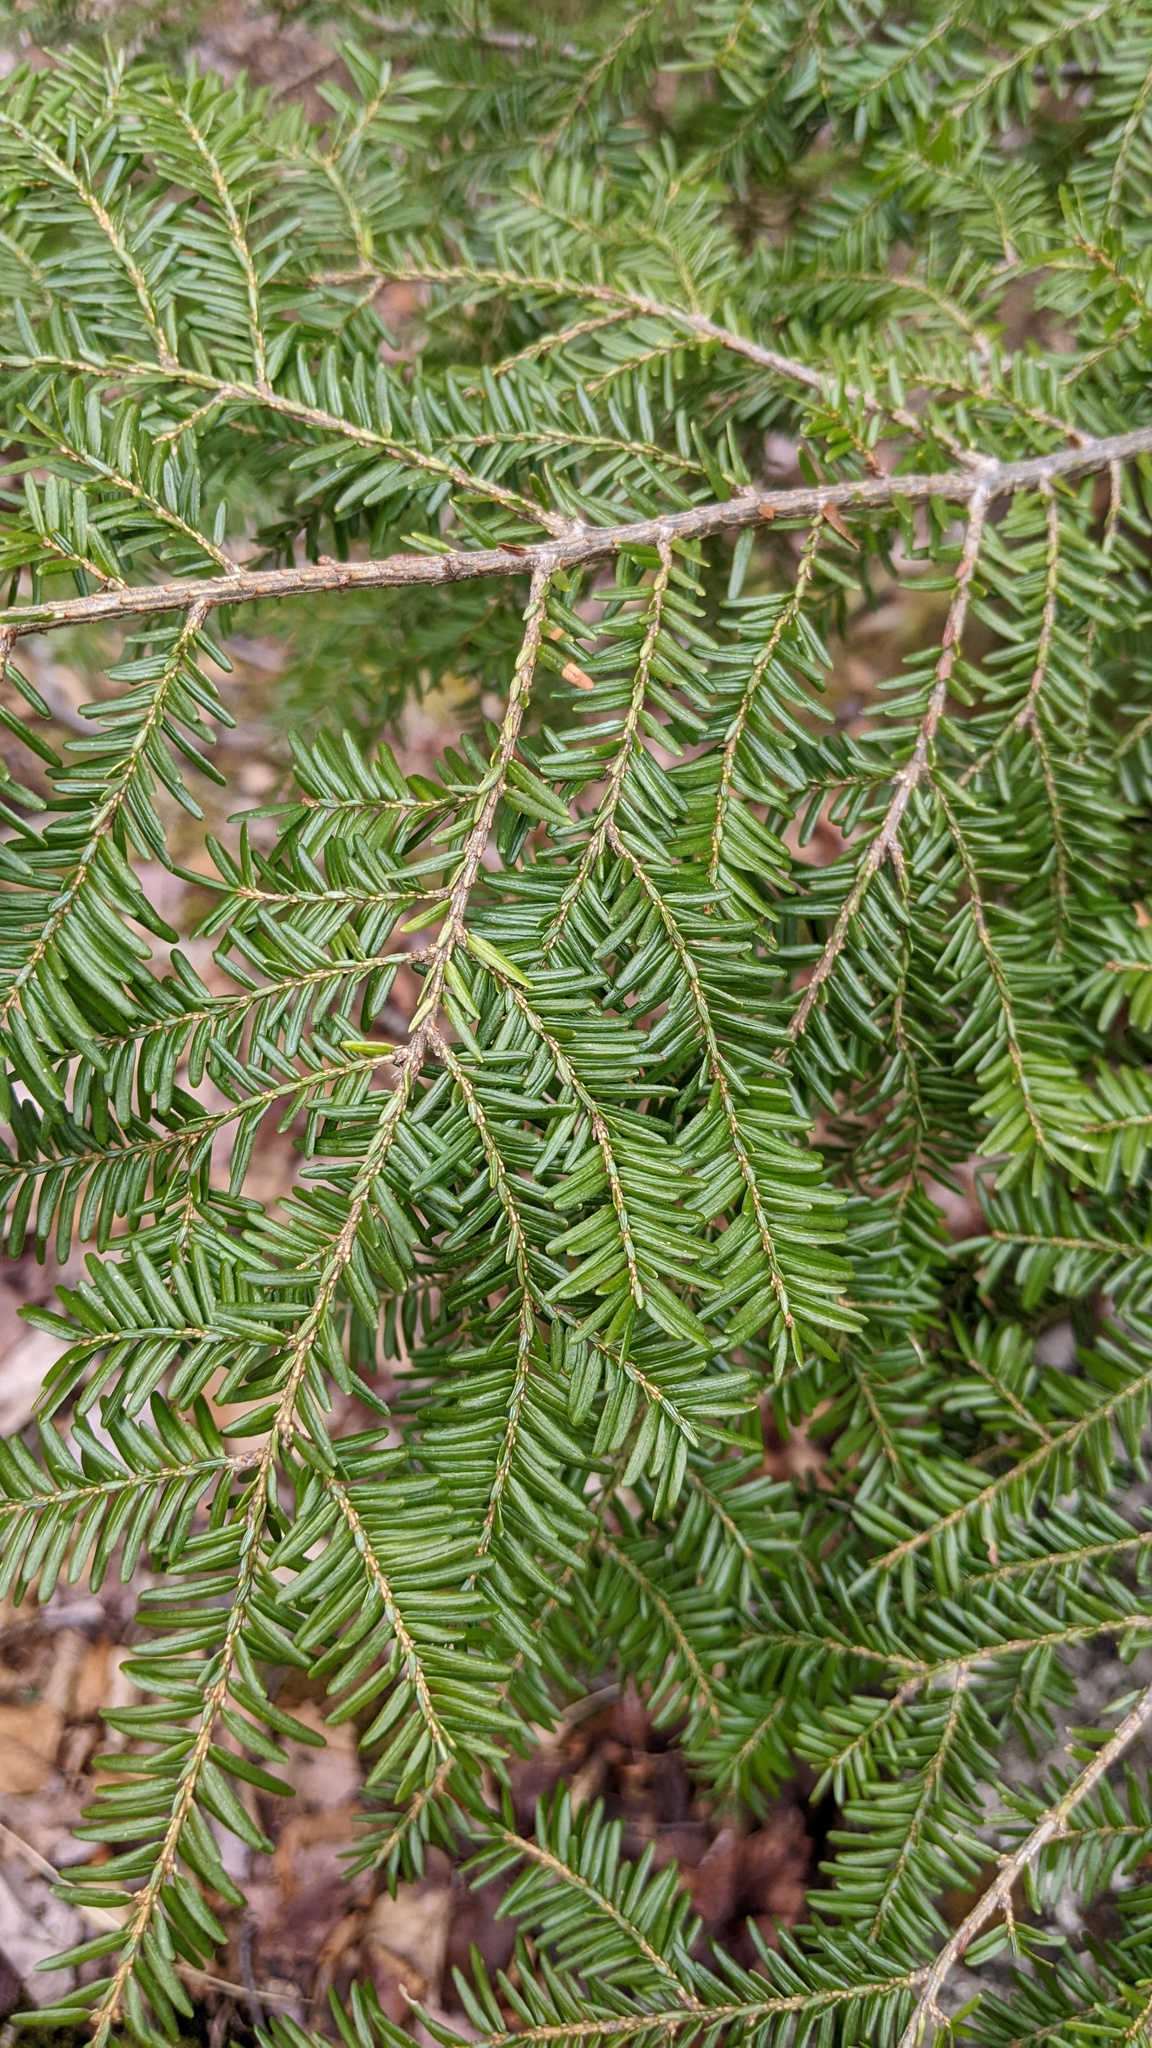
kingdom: Plantae
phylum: Tracheophyta
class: Pinopsida
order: Pinales
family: Pinaceae
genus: Tsuga
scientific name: Tsuga canadensis
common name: Eastern hemlock
